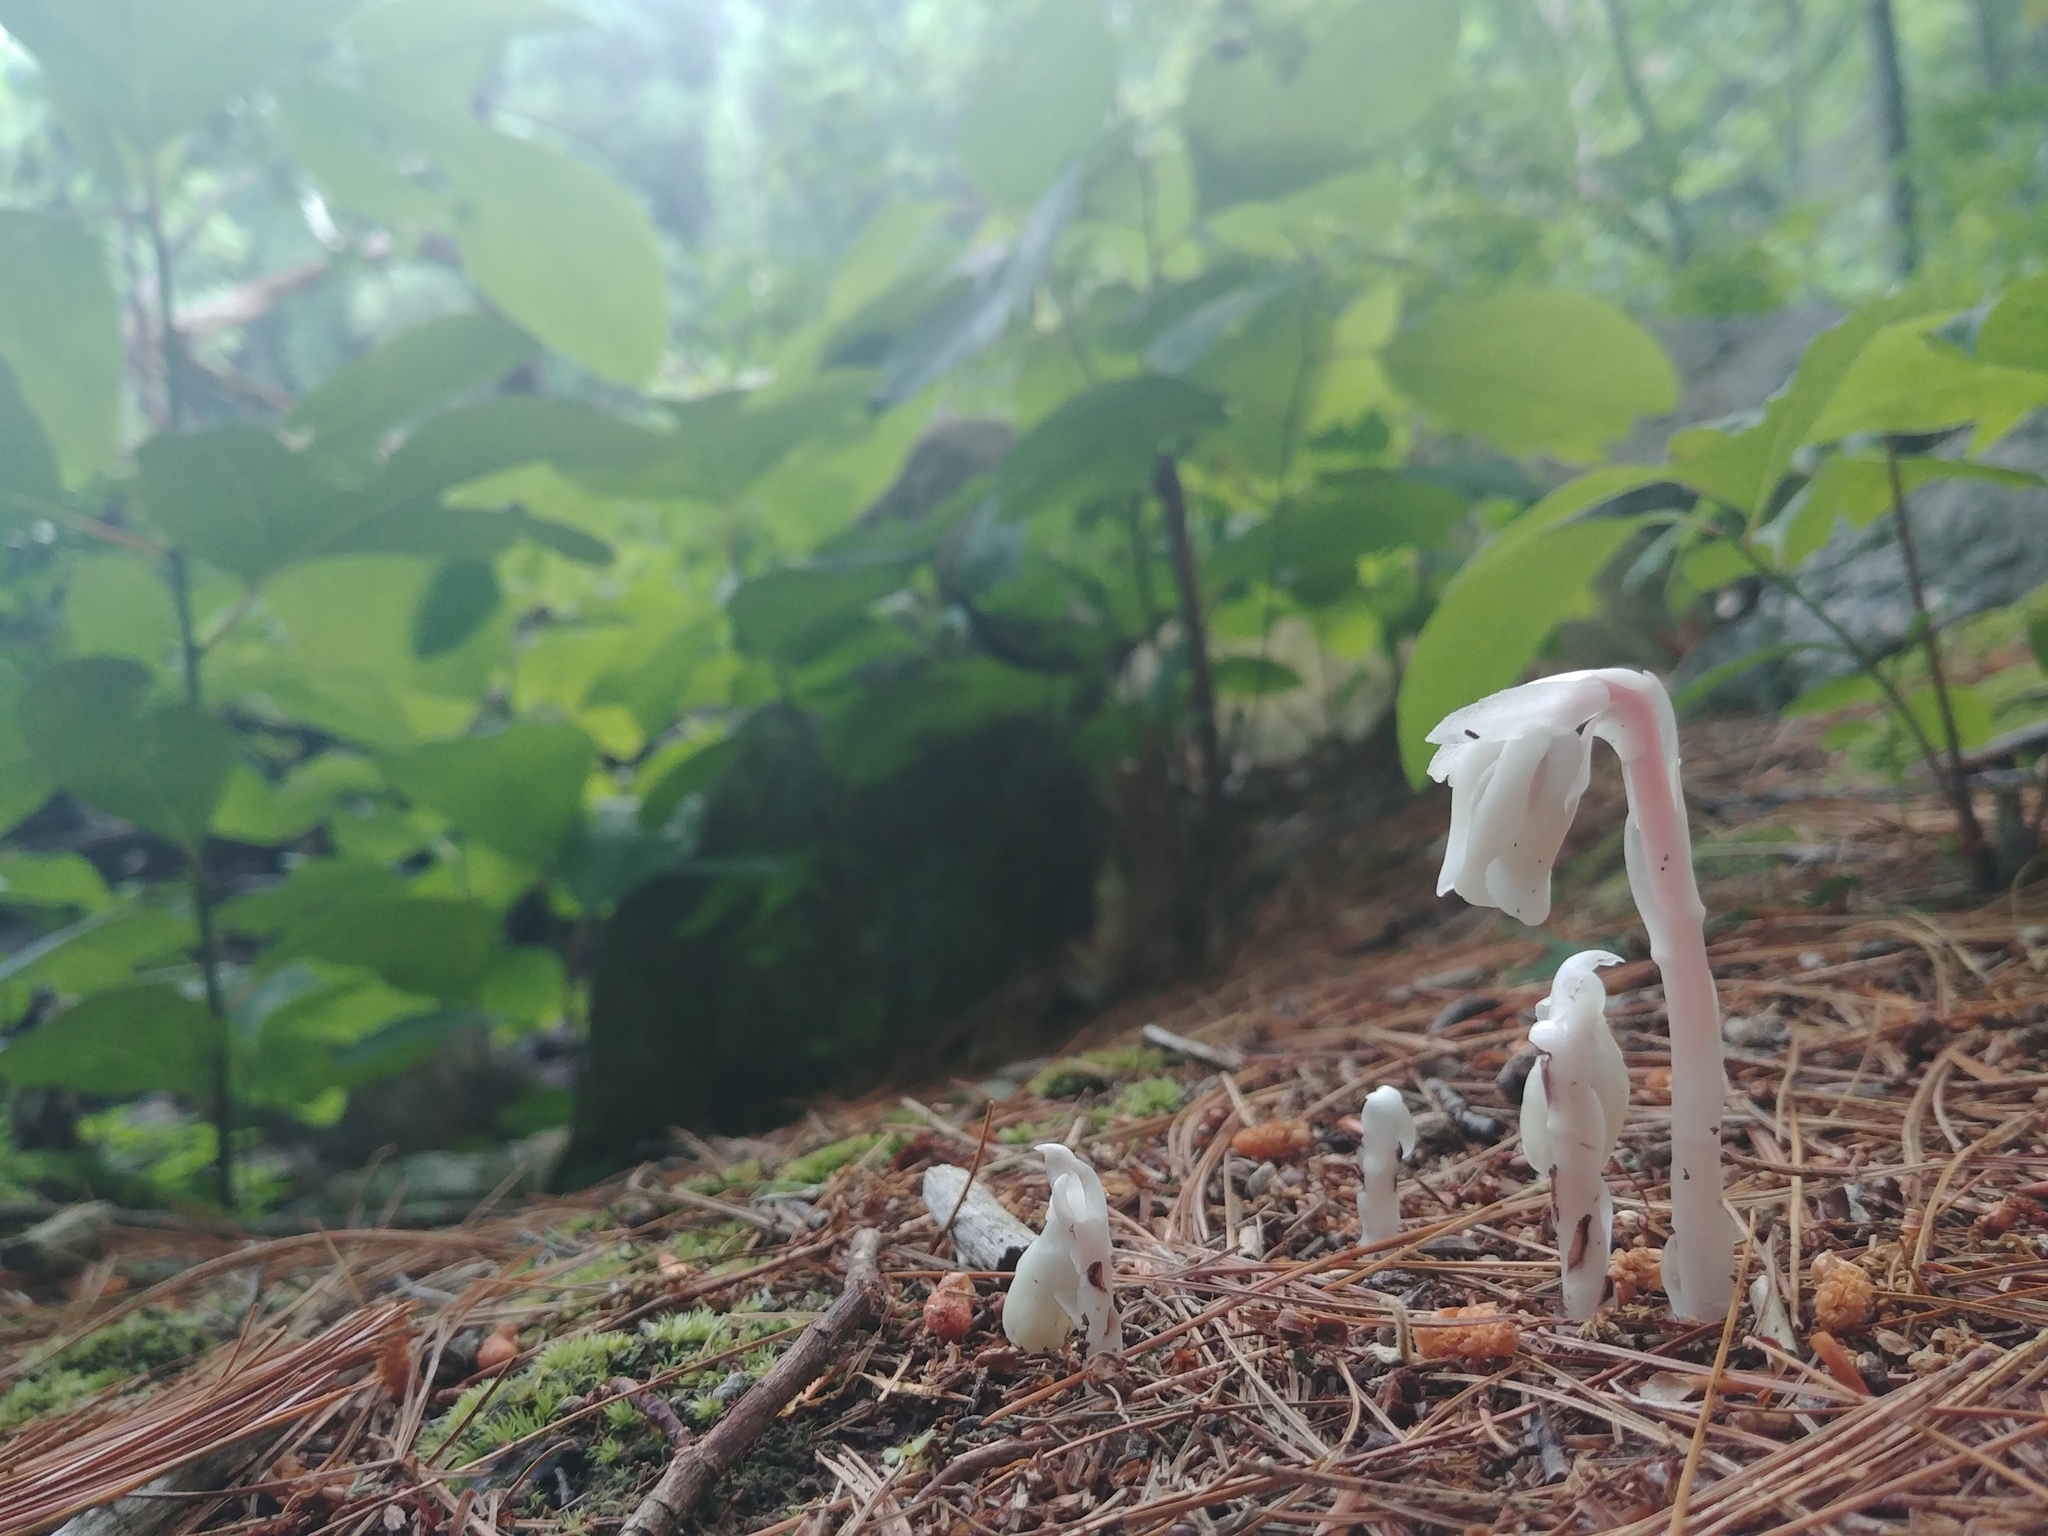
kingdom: Plantae
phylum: Tracheophyta
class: Magnoliopsida
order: Ericales
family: Ericaceae
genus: Monotropa
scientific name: Monotropa uniflora
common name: Convulsion root
